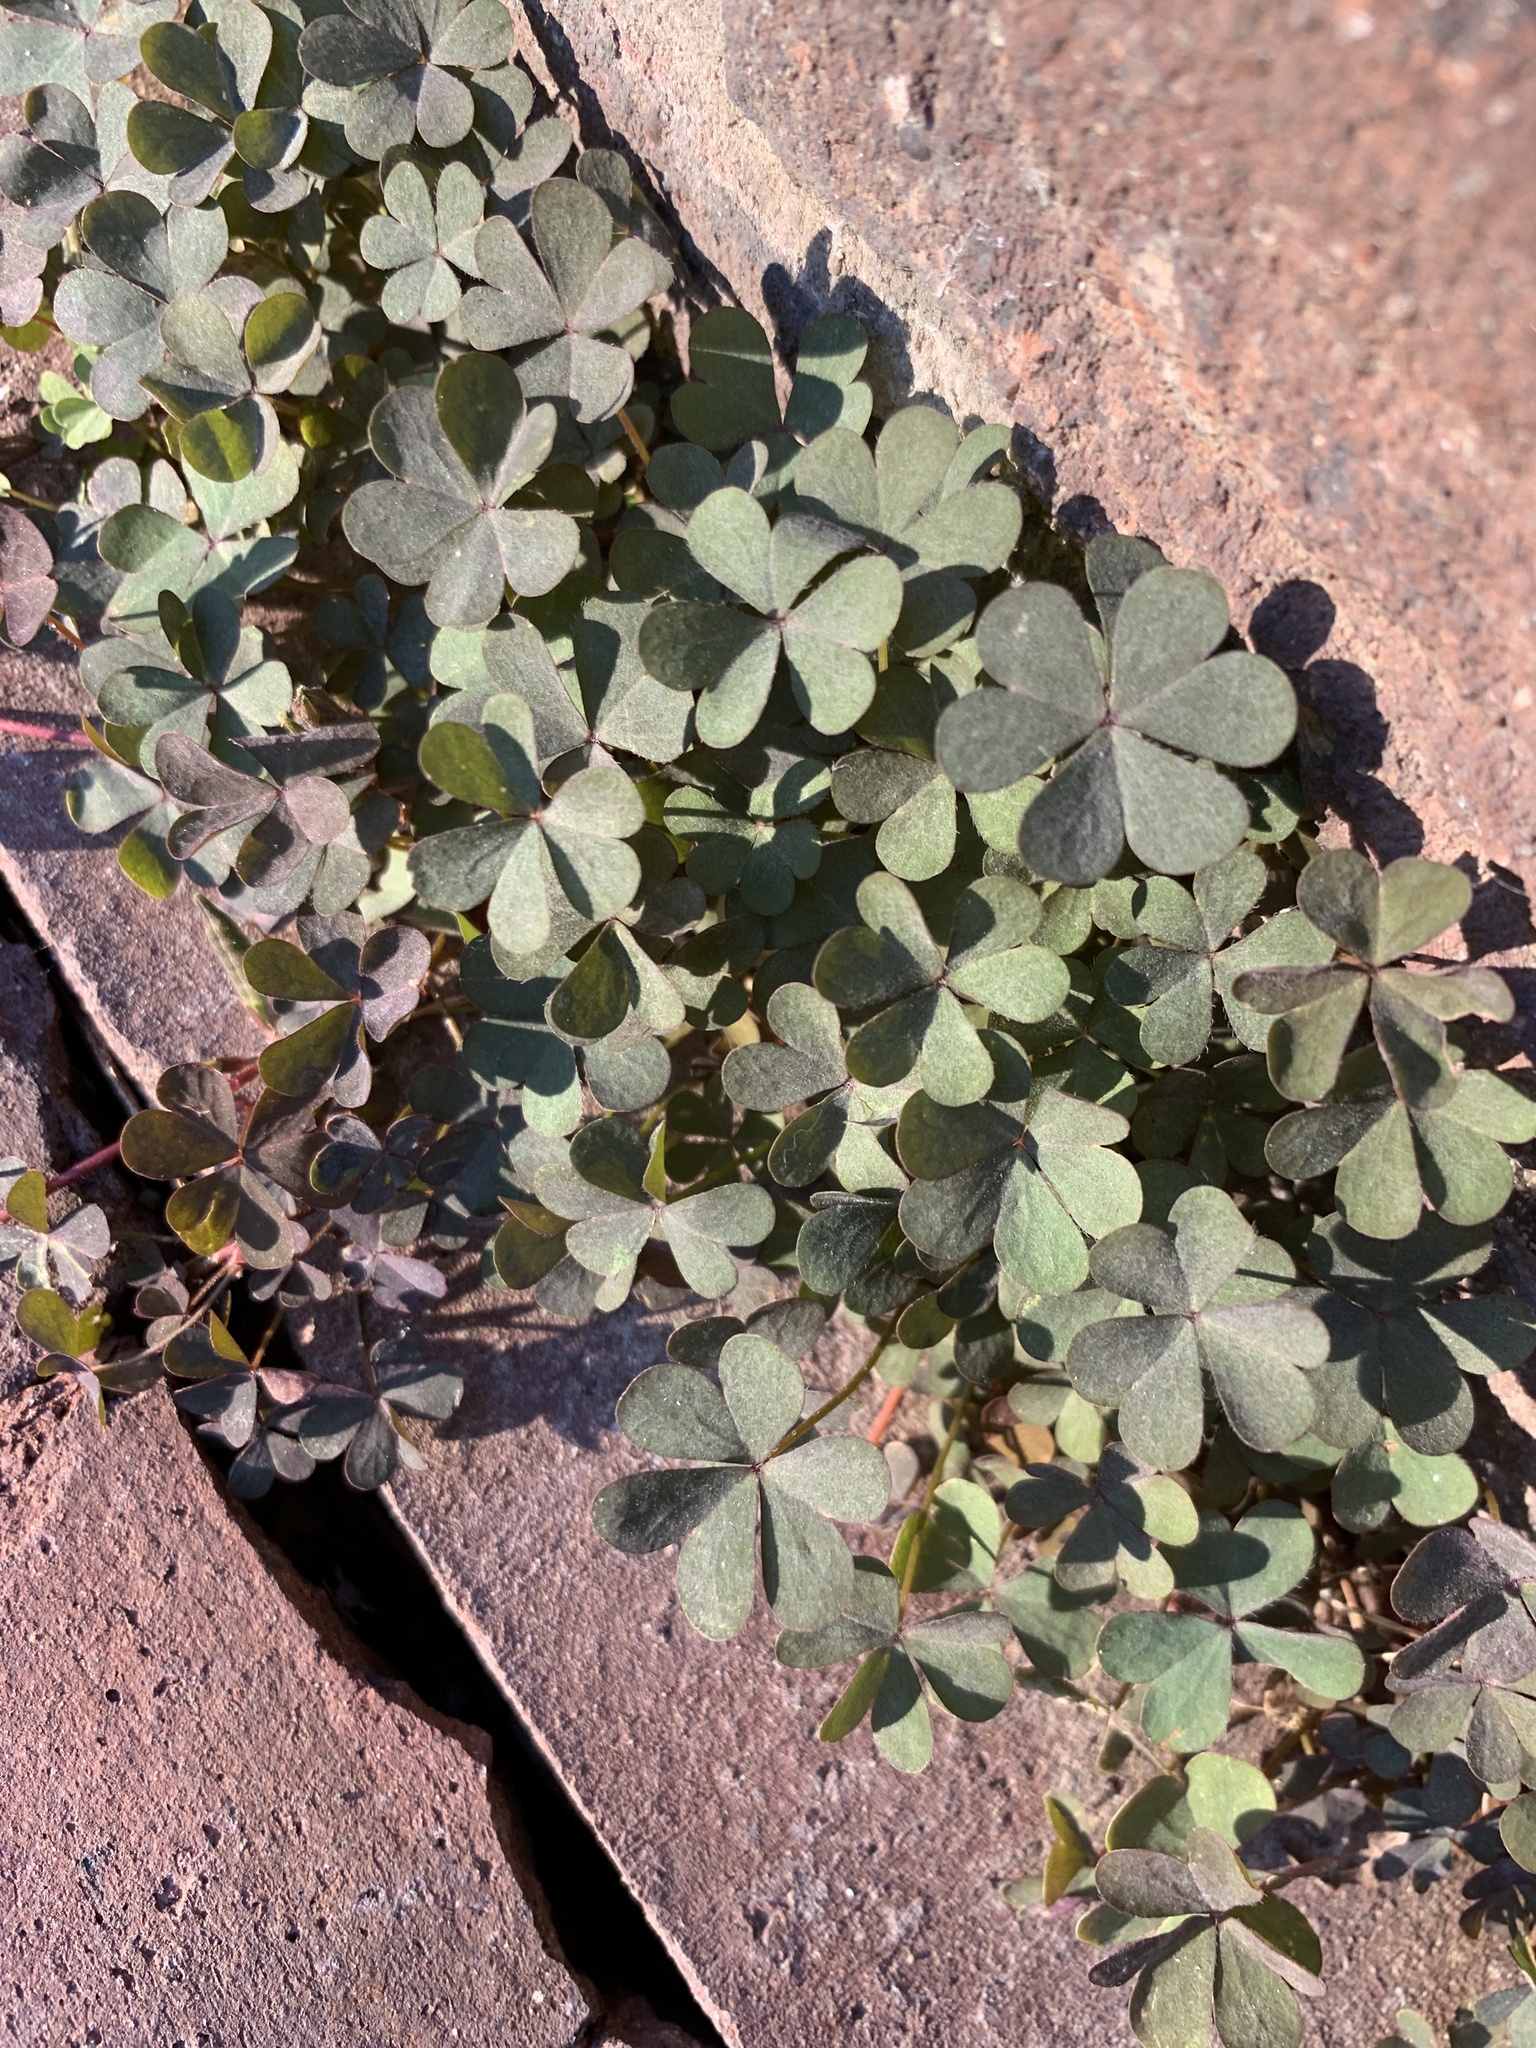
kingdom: Plantae
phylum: Tracheophyta
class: Magnoliopsida
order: Oxalidales
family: Oxalidaceae
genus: Oxalis
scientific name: Oxalis corniculata
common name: Procumbent yellow-sorrel
